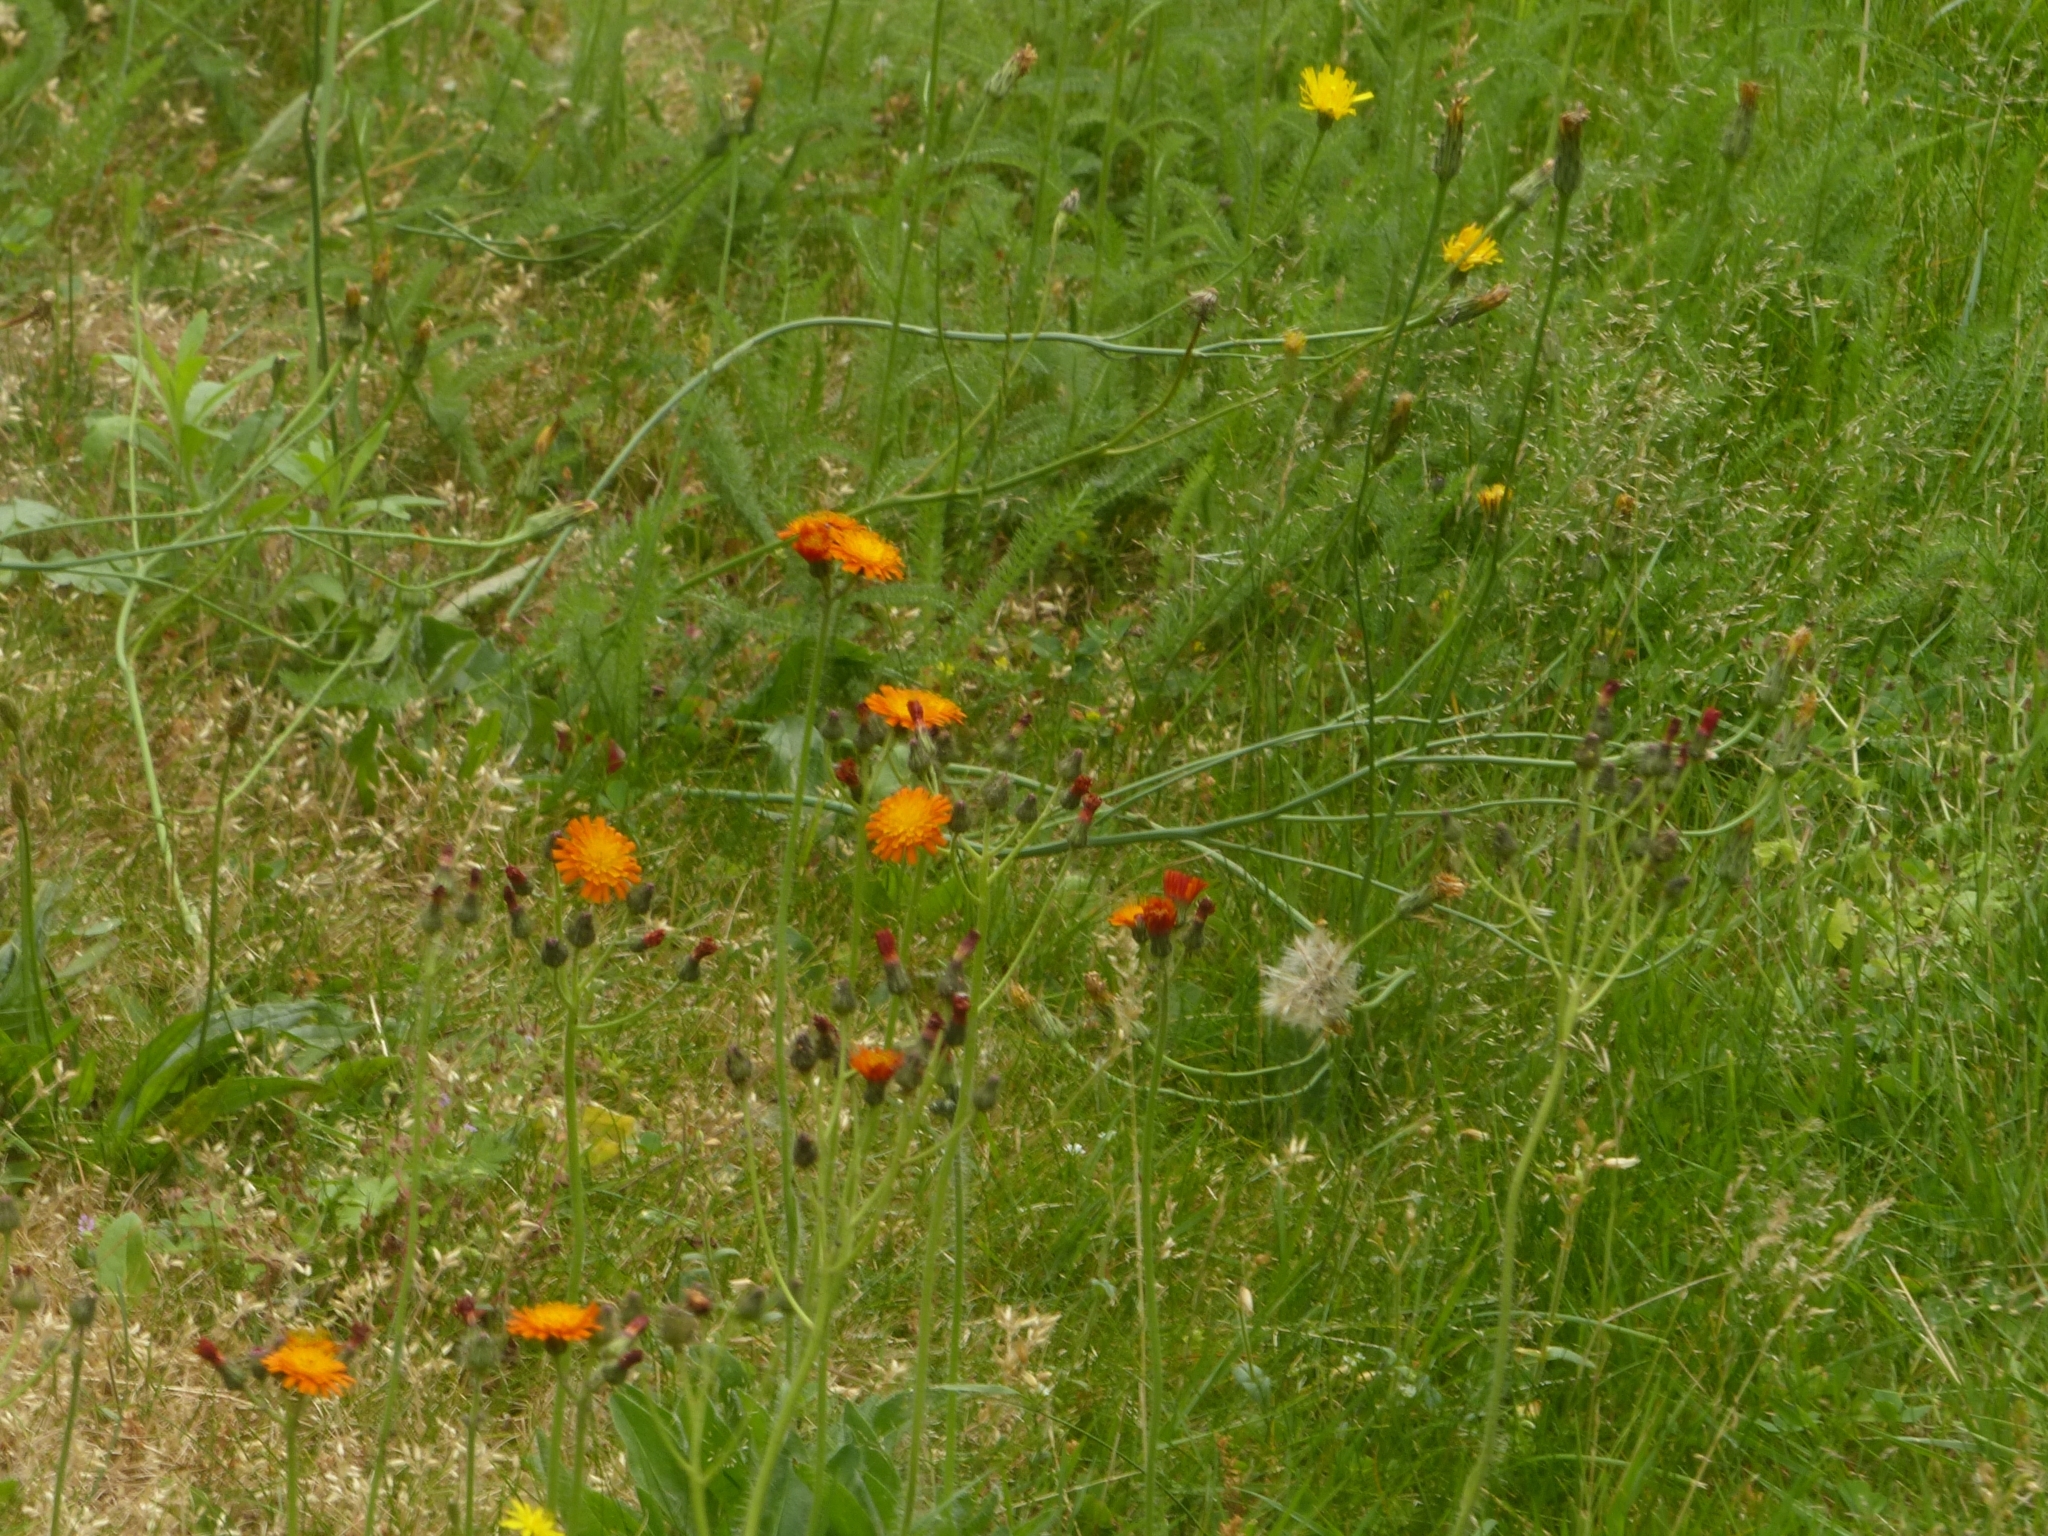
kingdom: Plantae
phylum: Tracheophyta
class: Magnoliopsida
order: Asterales
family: Asteraceae
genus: Pilosella
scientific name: Pilosella aurantiaca
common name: Fox-and-cubs
